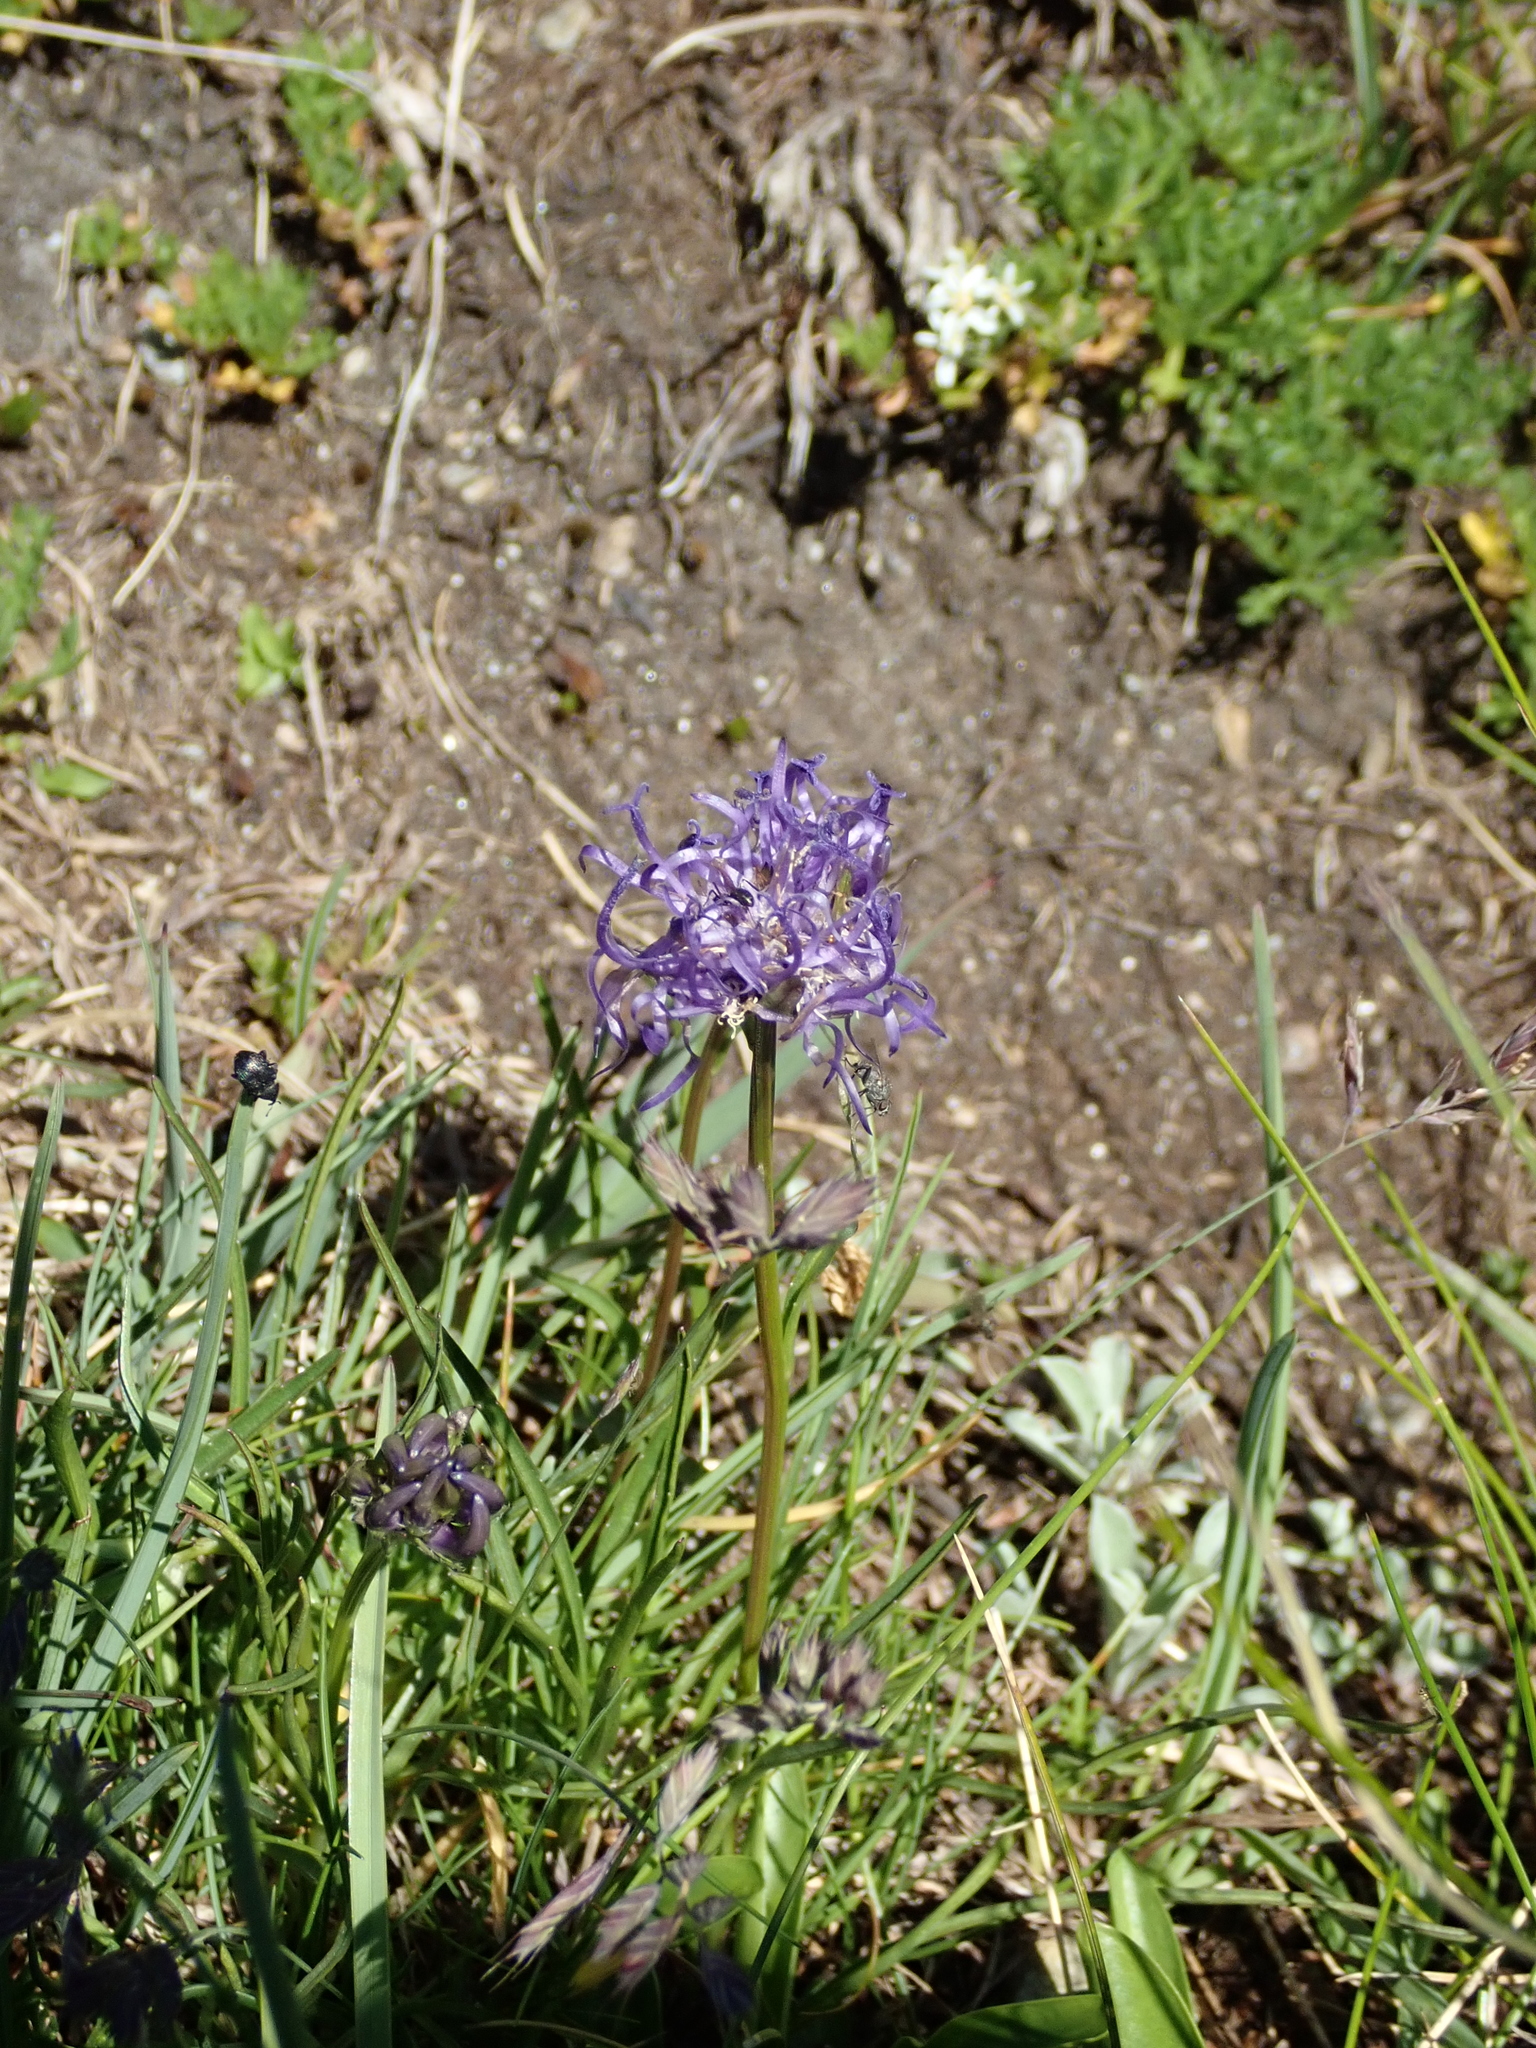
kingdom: Plantae
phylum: Tracheophyta
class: Magnoliopsida
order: Asterales
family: Campanulaceae
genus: Phyteuma
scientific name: Phyteuma hemisphaericum
